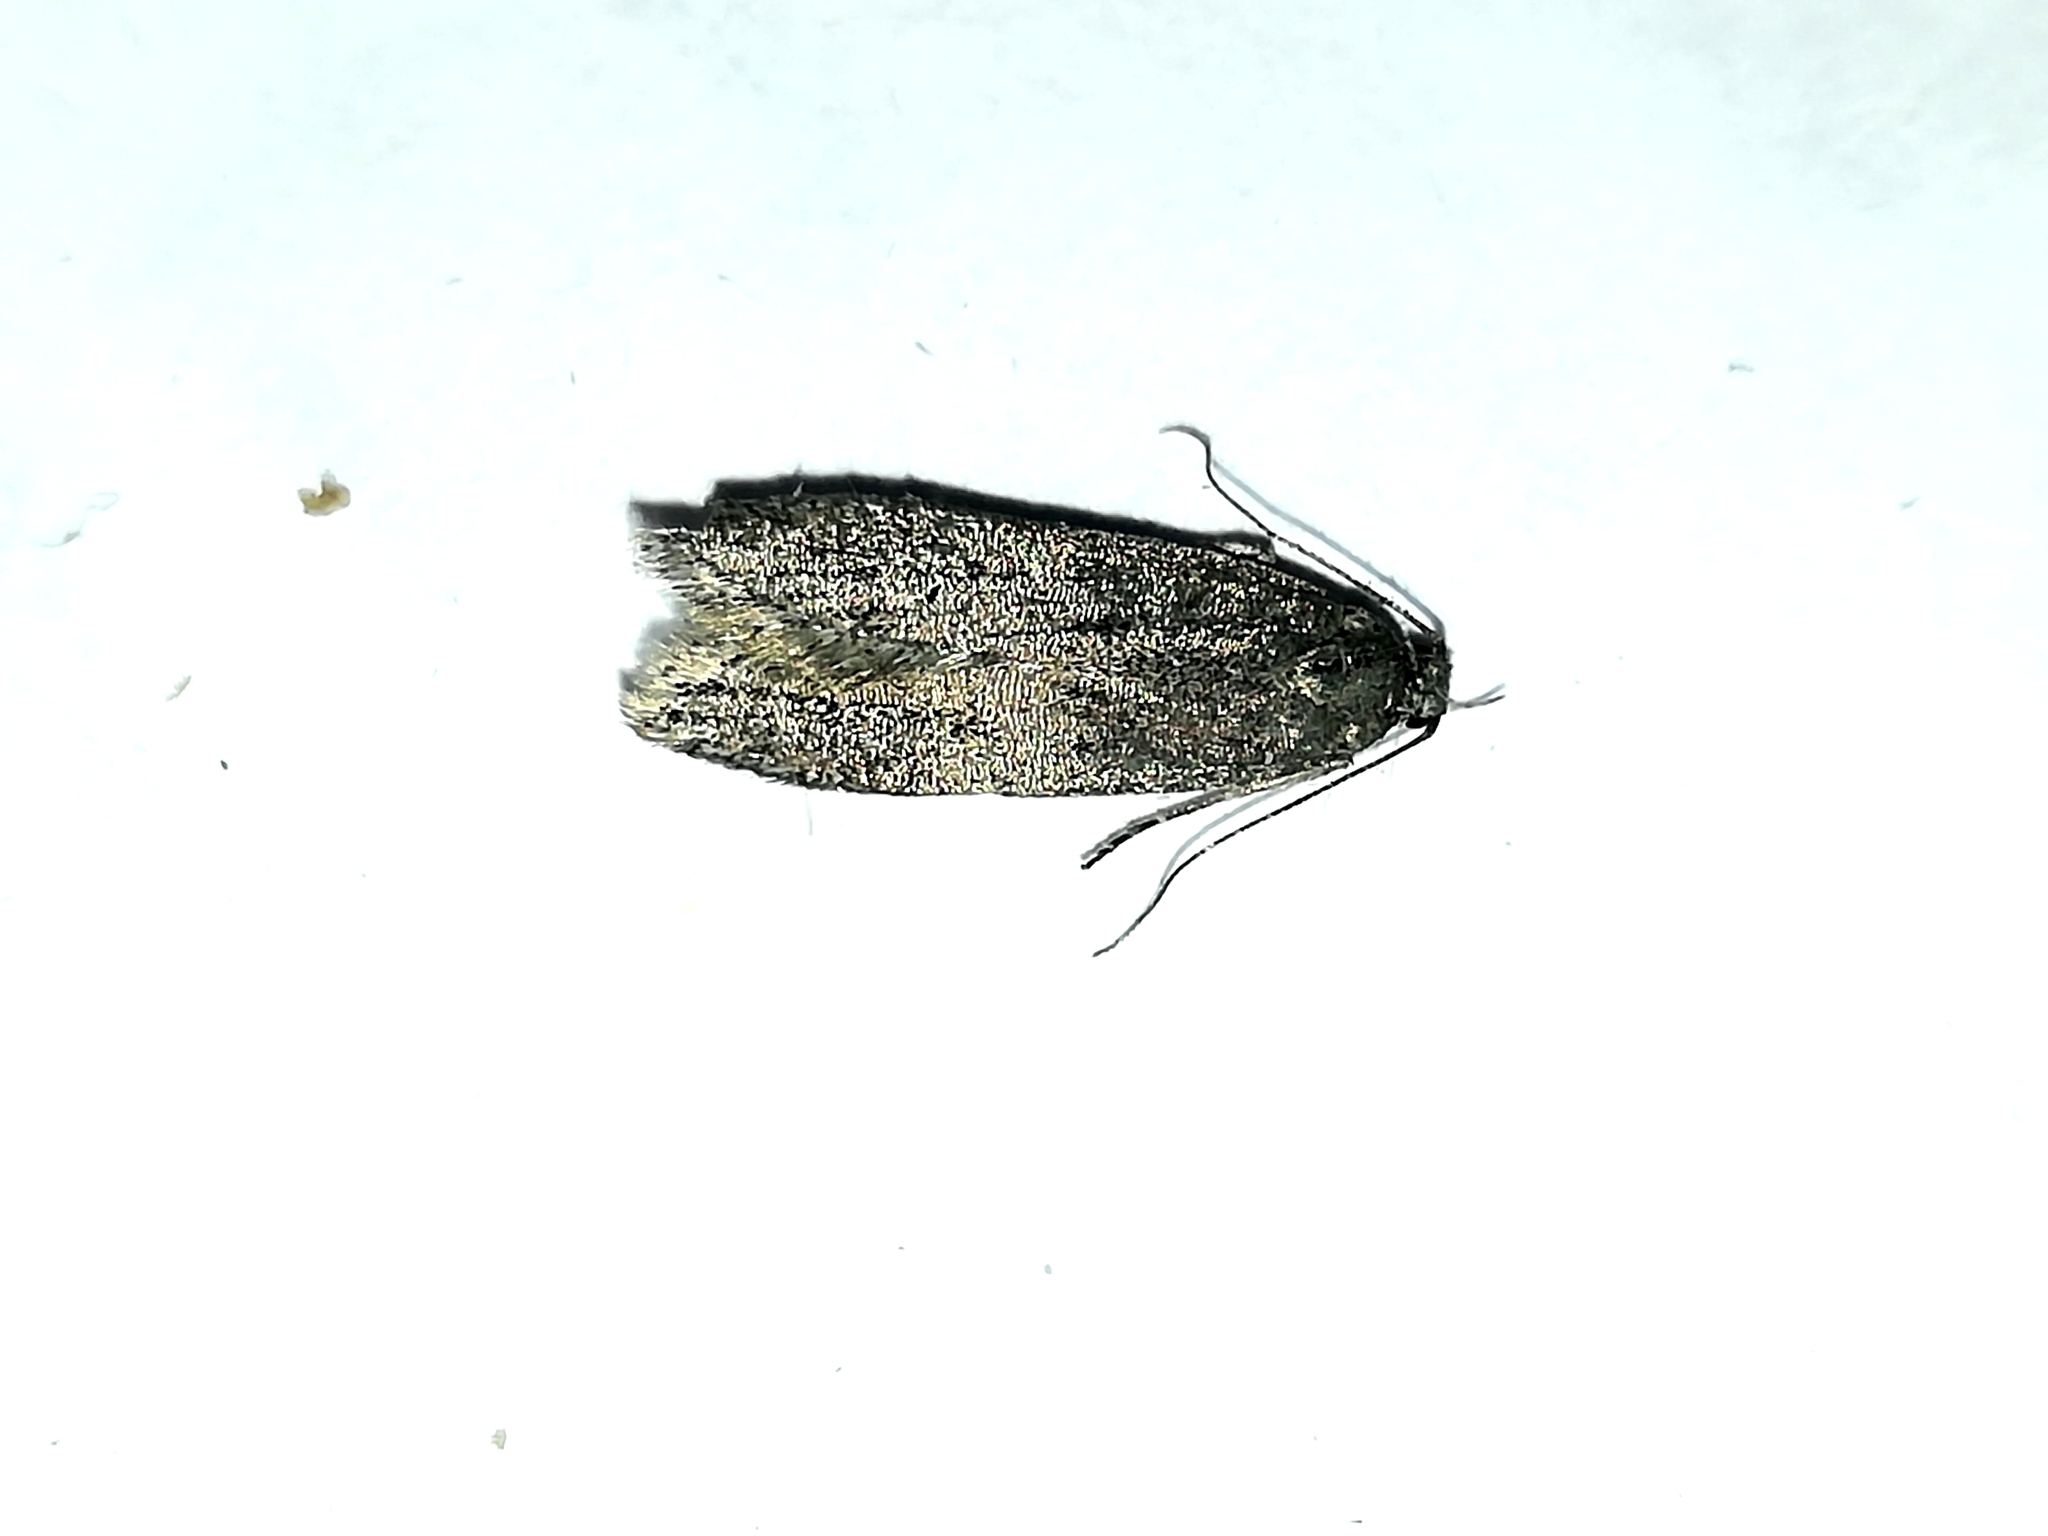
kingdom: Animalia
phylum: Arthropoda
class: Insecta
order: Lepidoptera
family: Depressariidae
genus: Exaeretia
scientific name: Exaeretia ciniflonella
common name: Scotch flat-body
